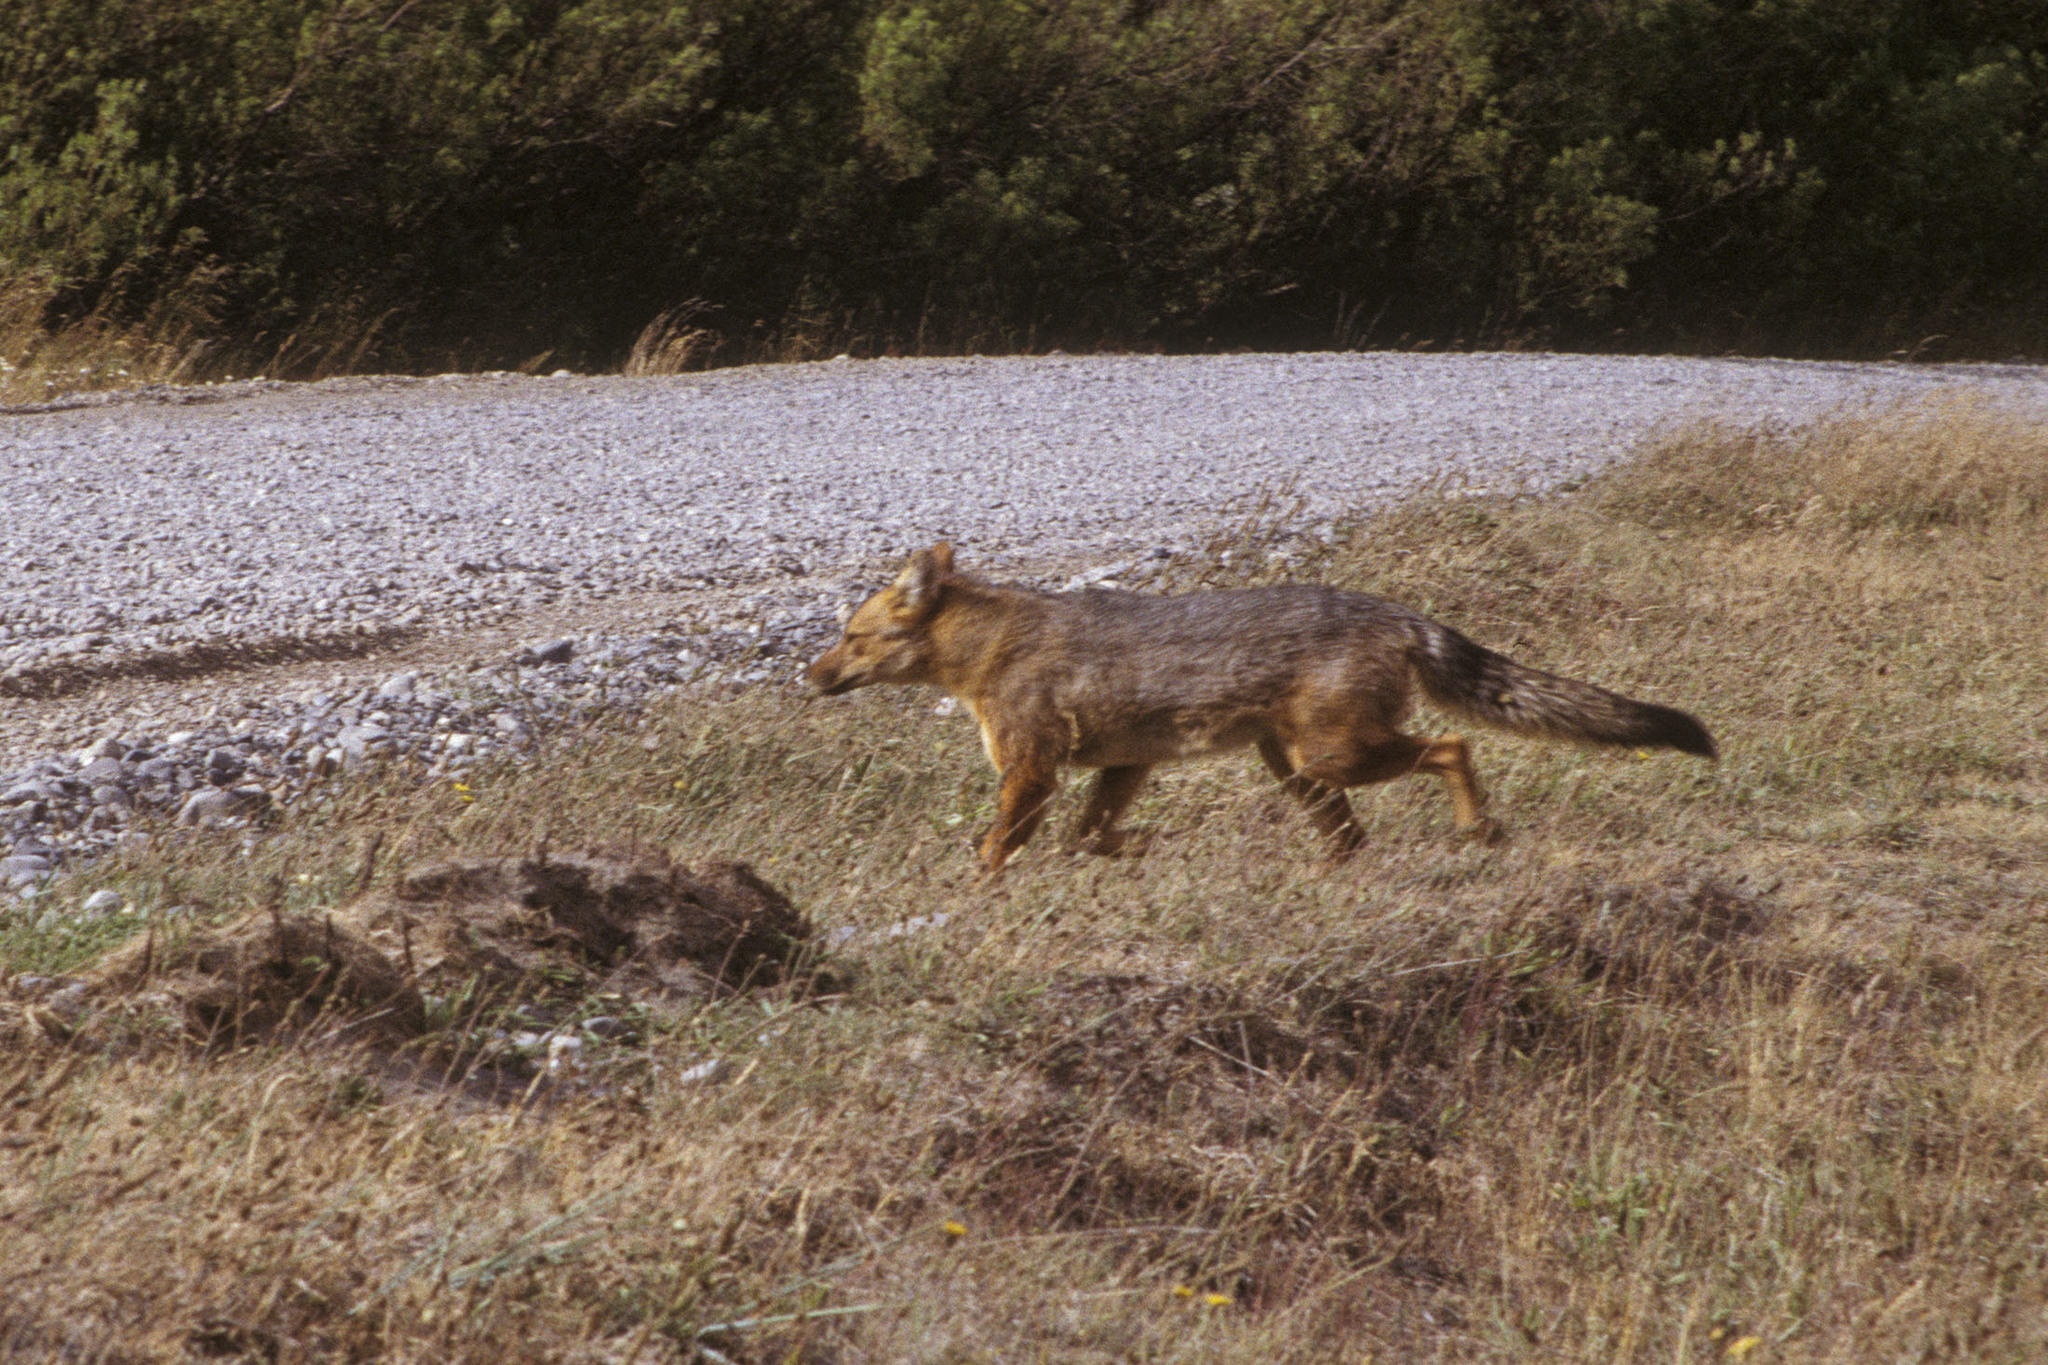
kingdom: Animalia
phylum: Chordata
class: Mammalia
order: Carnivora
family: Canidae
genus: Lycalopex
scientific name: Lycalopex culpaeus
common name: Culpeo
